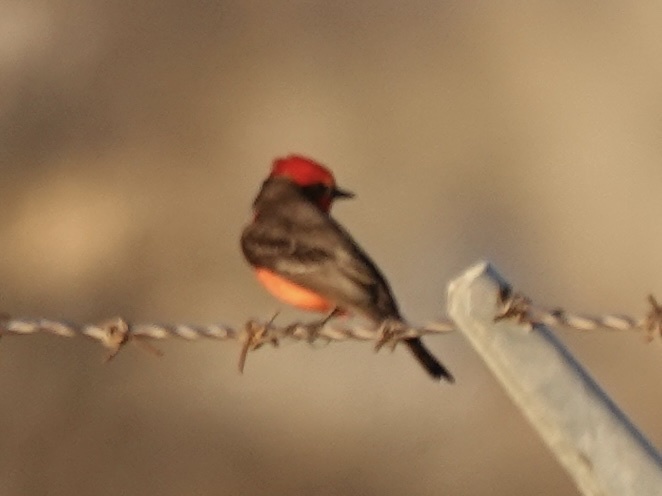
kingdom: Animalia
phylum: Chordata
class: Aves
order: Passeriformes
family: Tyrannidae
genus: Pyrocephalus
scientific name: Pyrocephalus rubinus
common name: Vermilion flycatcher
